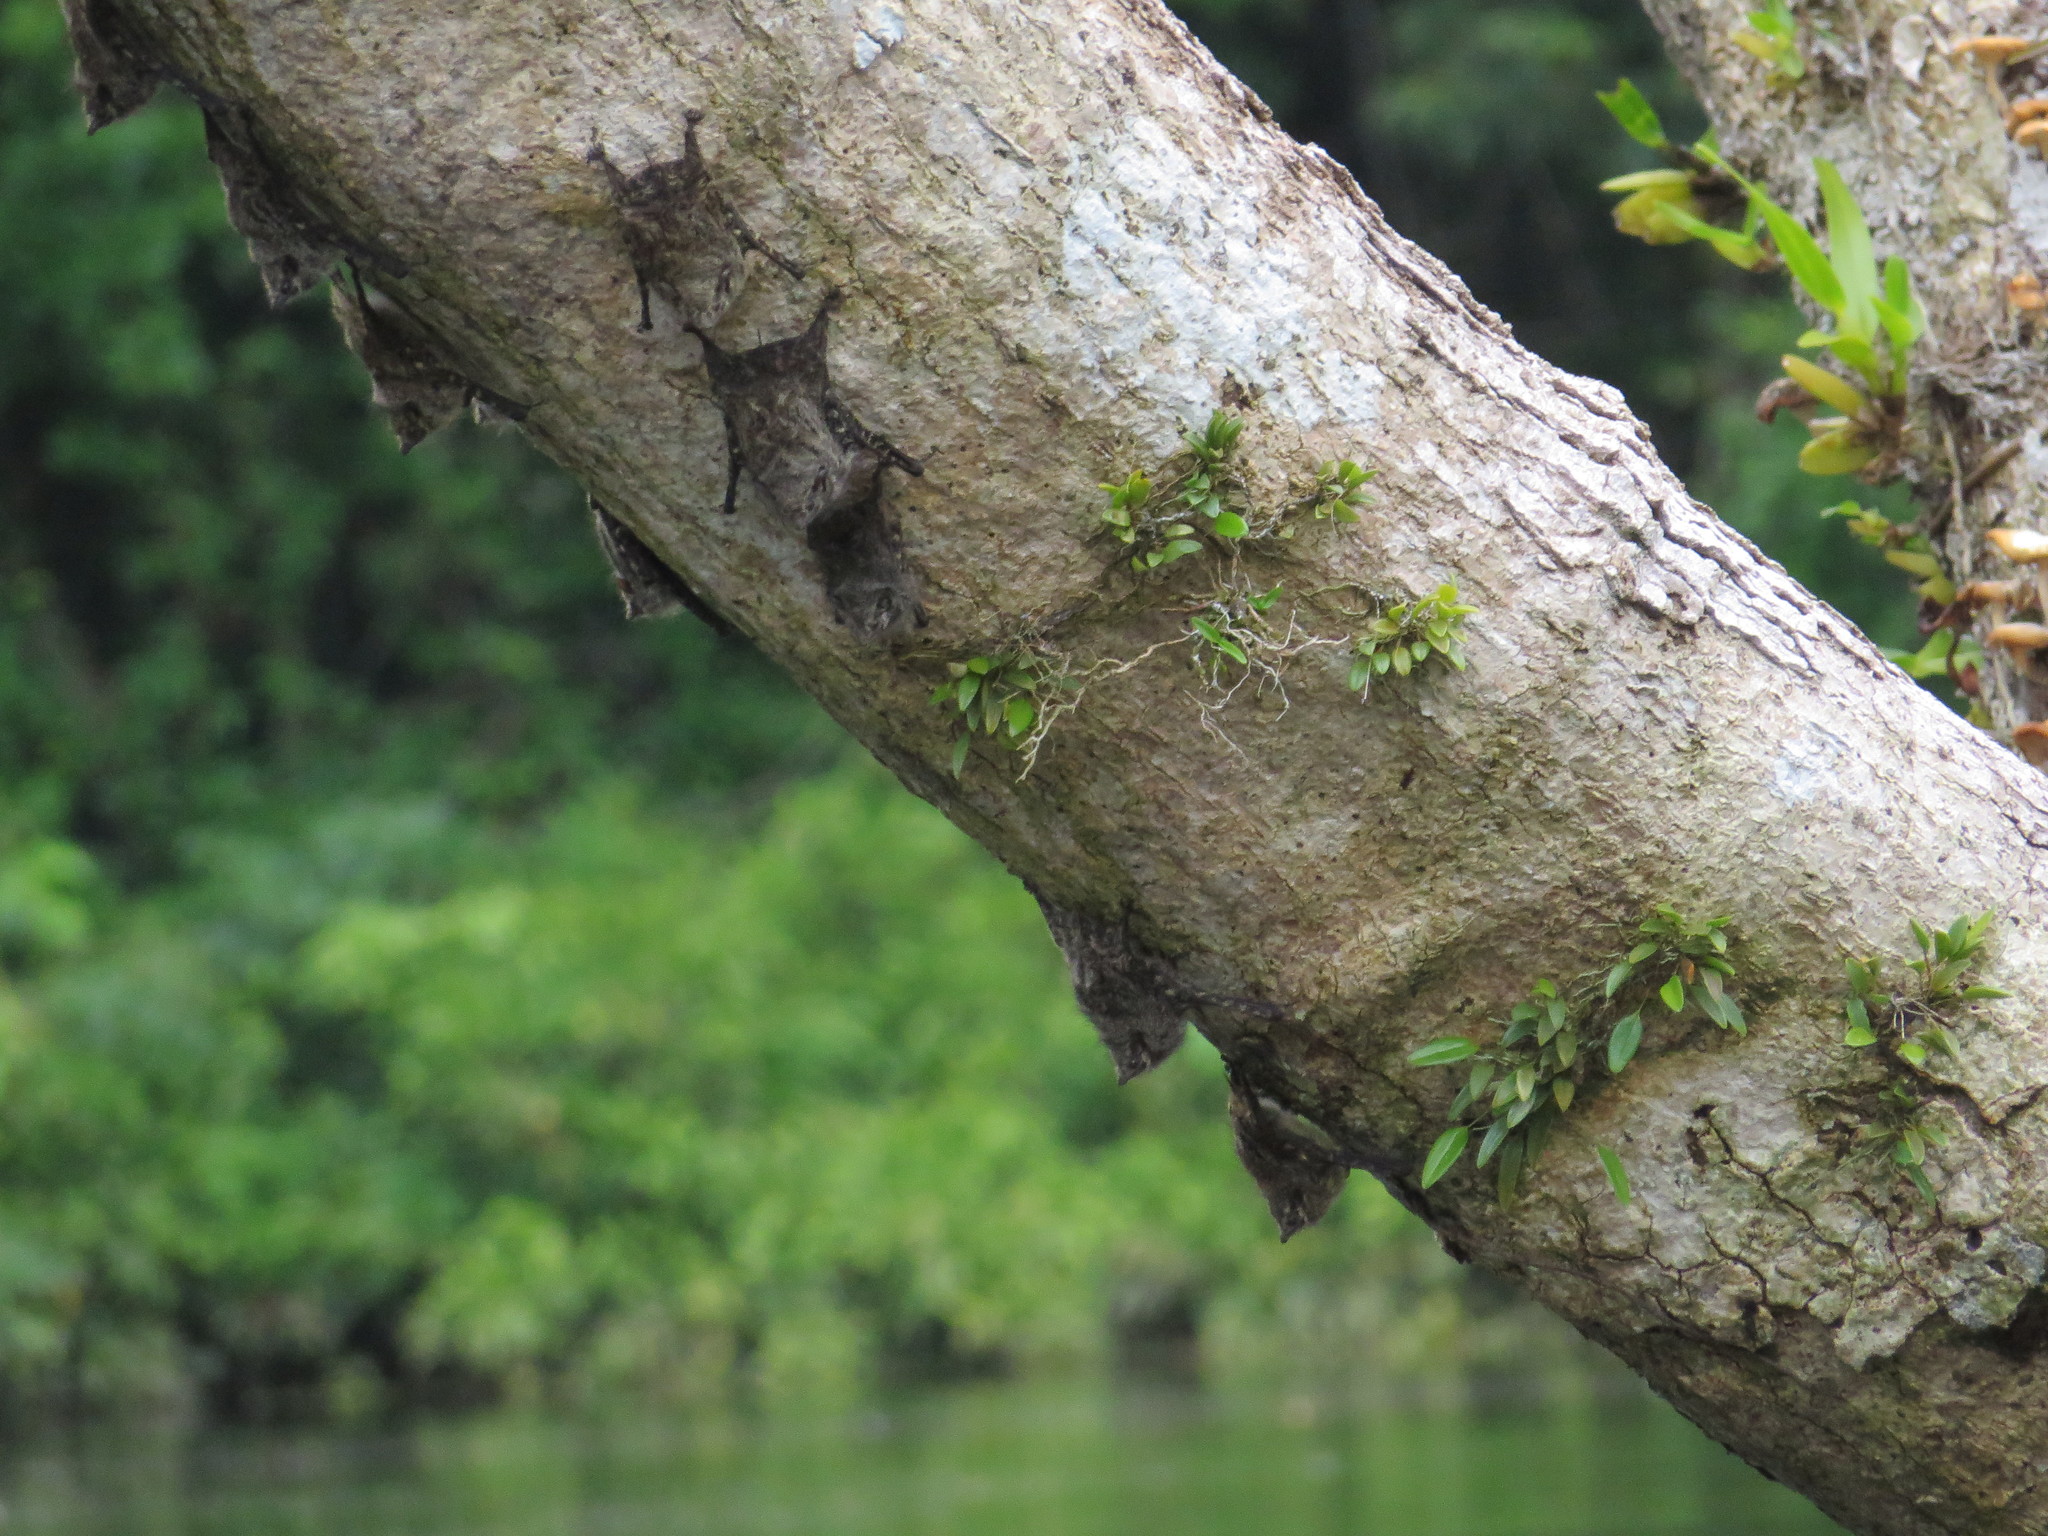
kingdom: Animalia
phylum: Chordata
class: Mammalia
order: Chiroptera
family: Emballonuridae
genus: Rhynchonycteris
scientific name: Rhynchonycteris naso
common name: Proboscis bat
